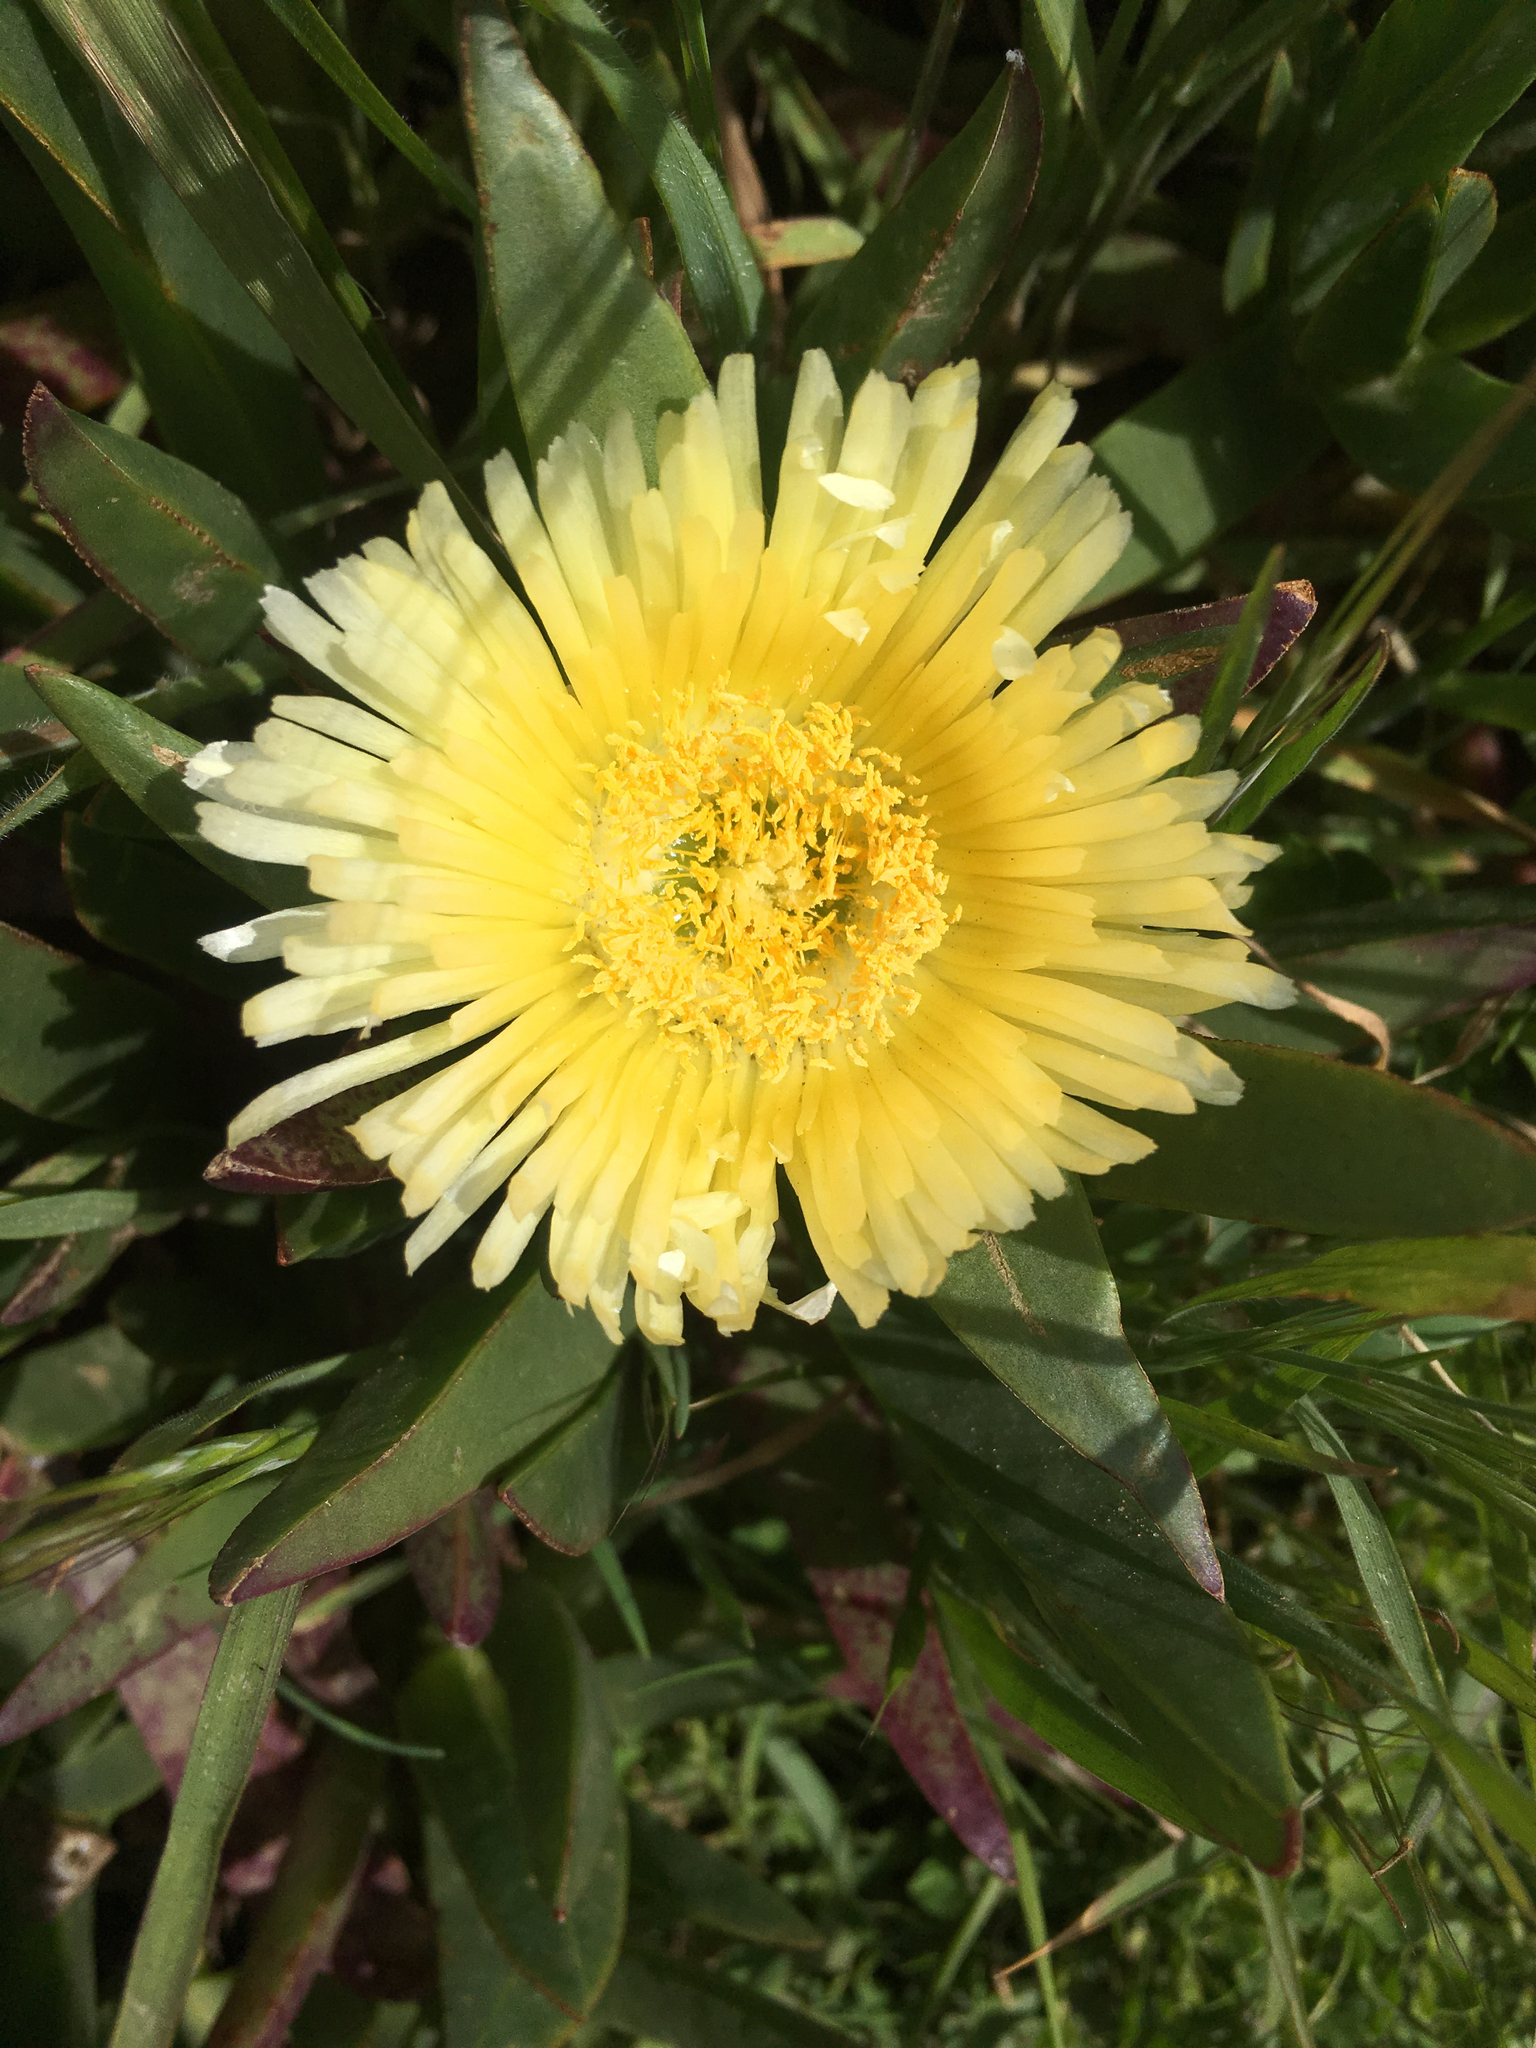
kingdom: Plantae
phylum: Tracheophyta
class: Magnoliopsida
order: Caryophyllales
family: Aizoaceae
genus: Carpobrotus
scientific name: Carpobrotus edulis
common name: Hottentot-fig
